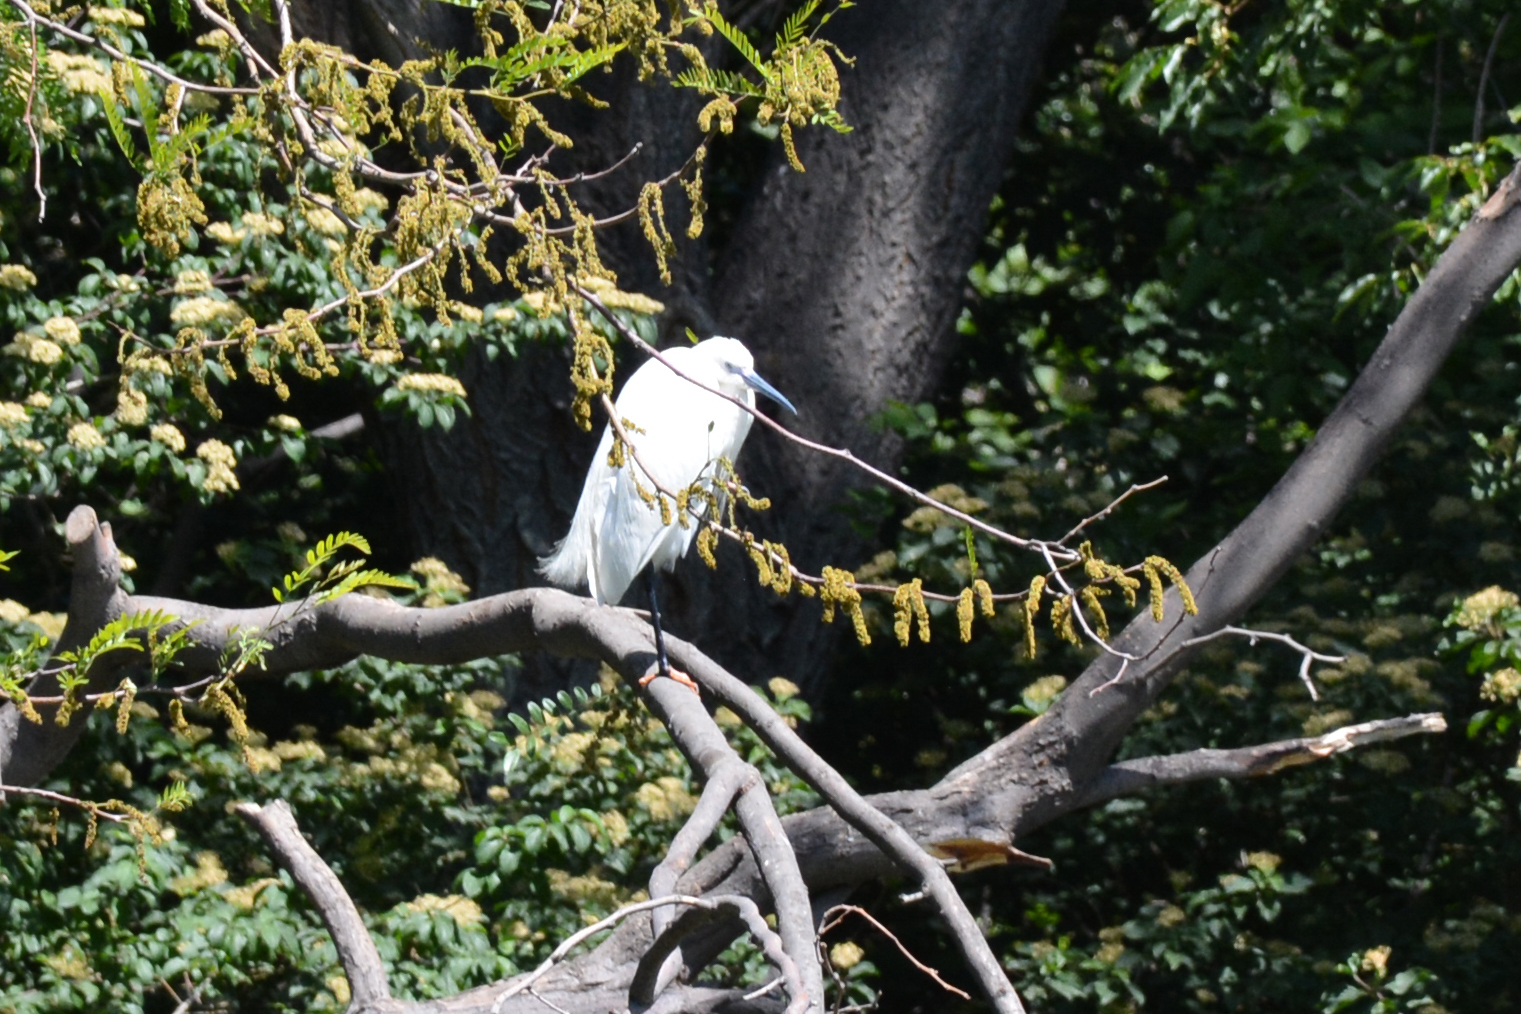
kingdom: Animalia
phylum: Chordata
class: Aves
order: Pelecaniformes
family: Ardeidae
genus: Egretta
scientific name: Egretta garzetta
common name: Little egret
